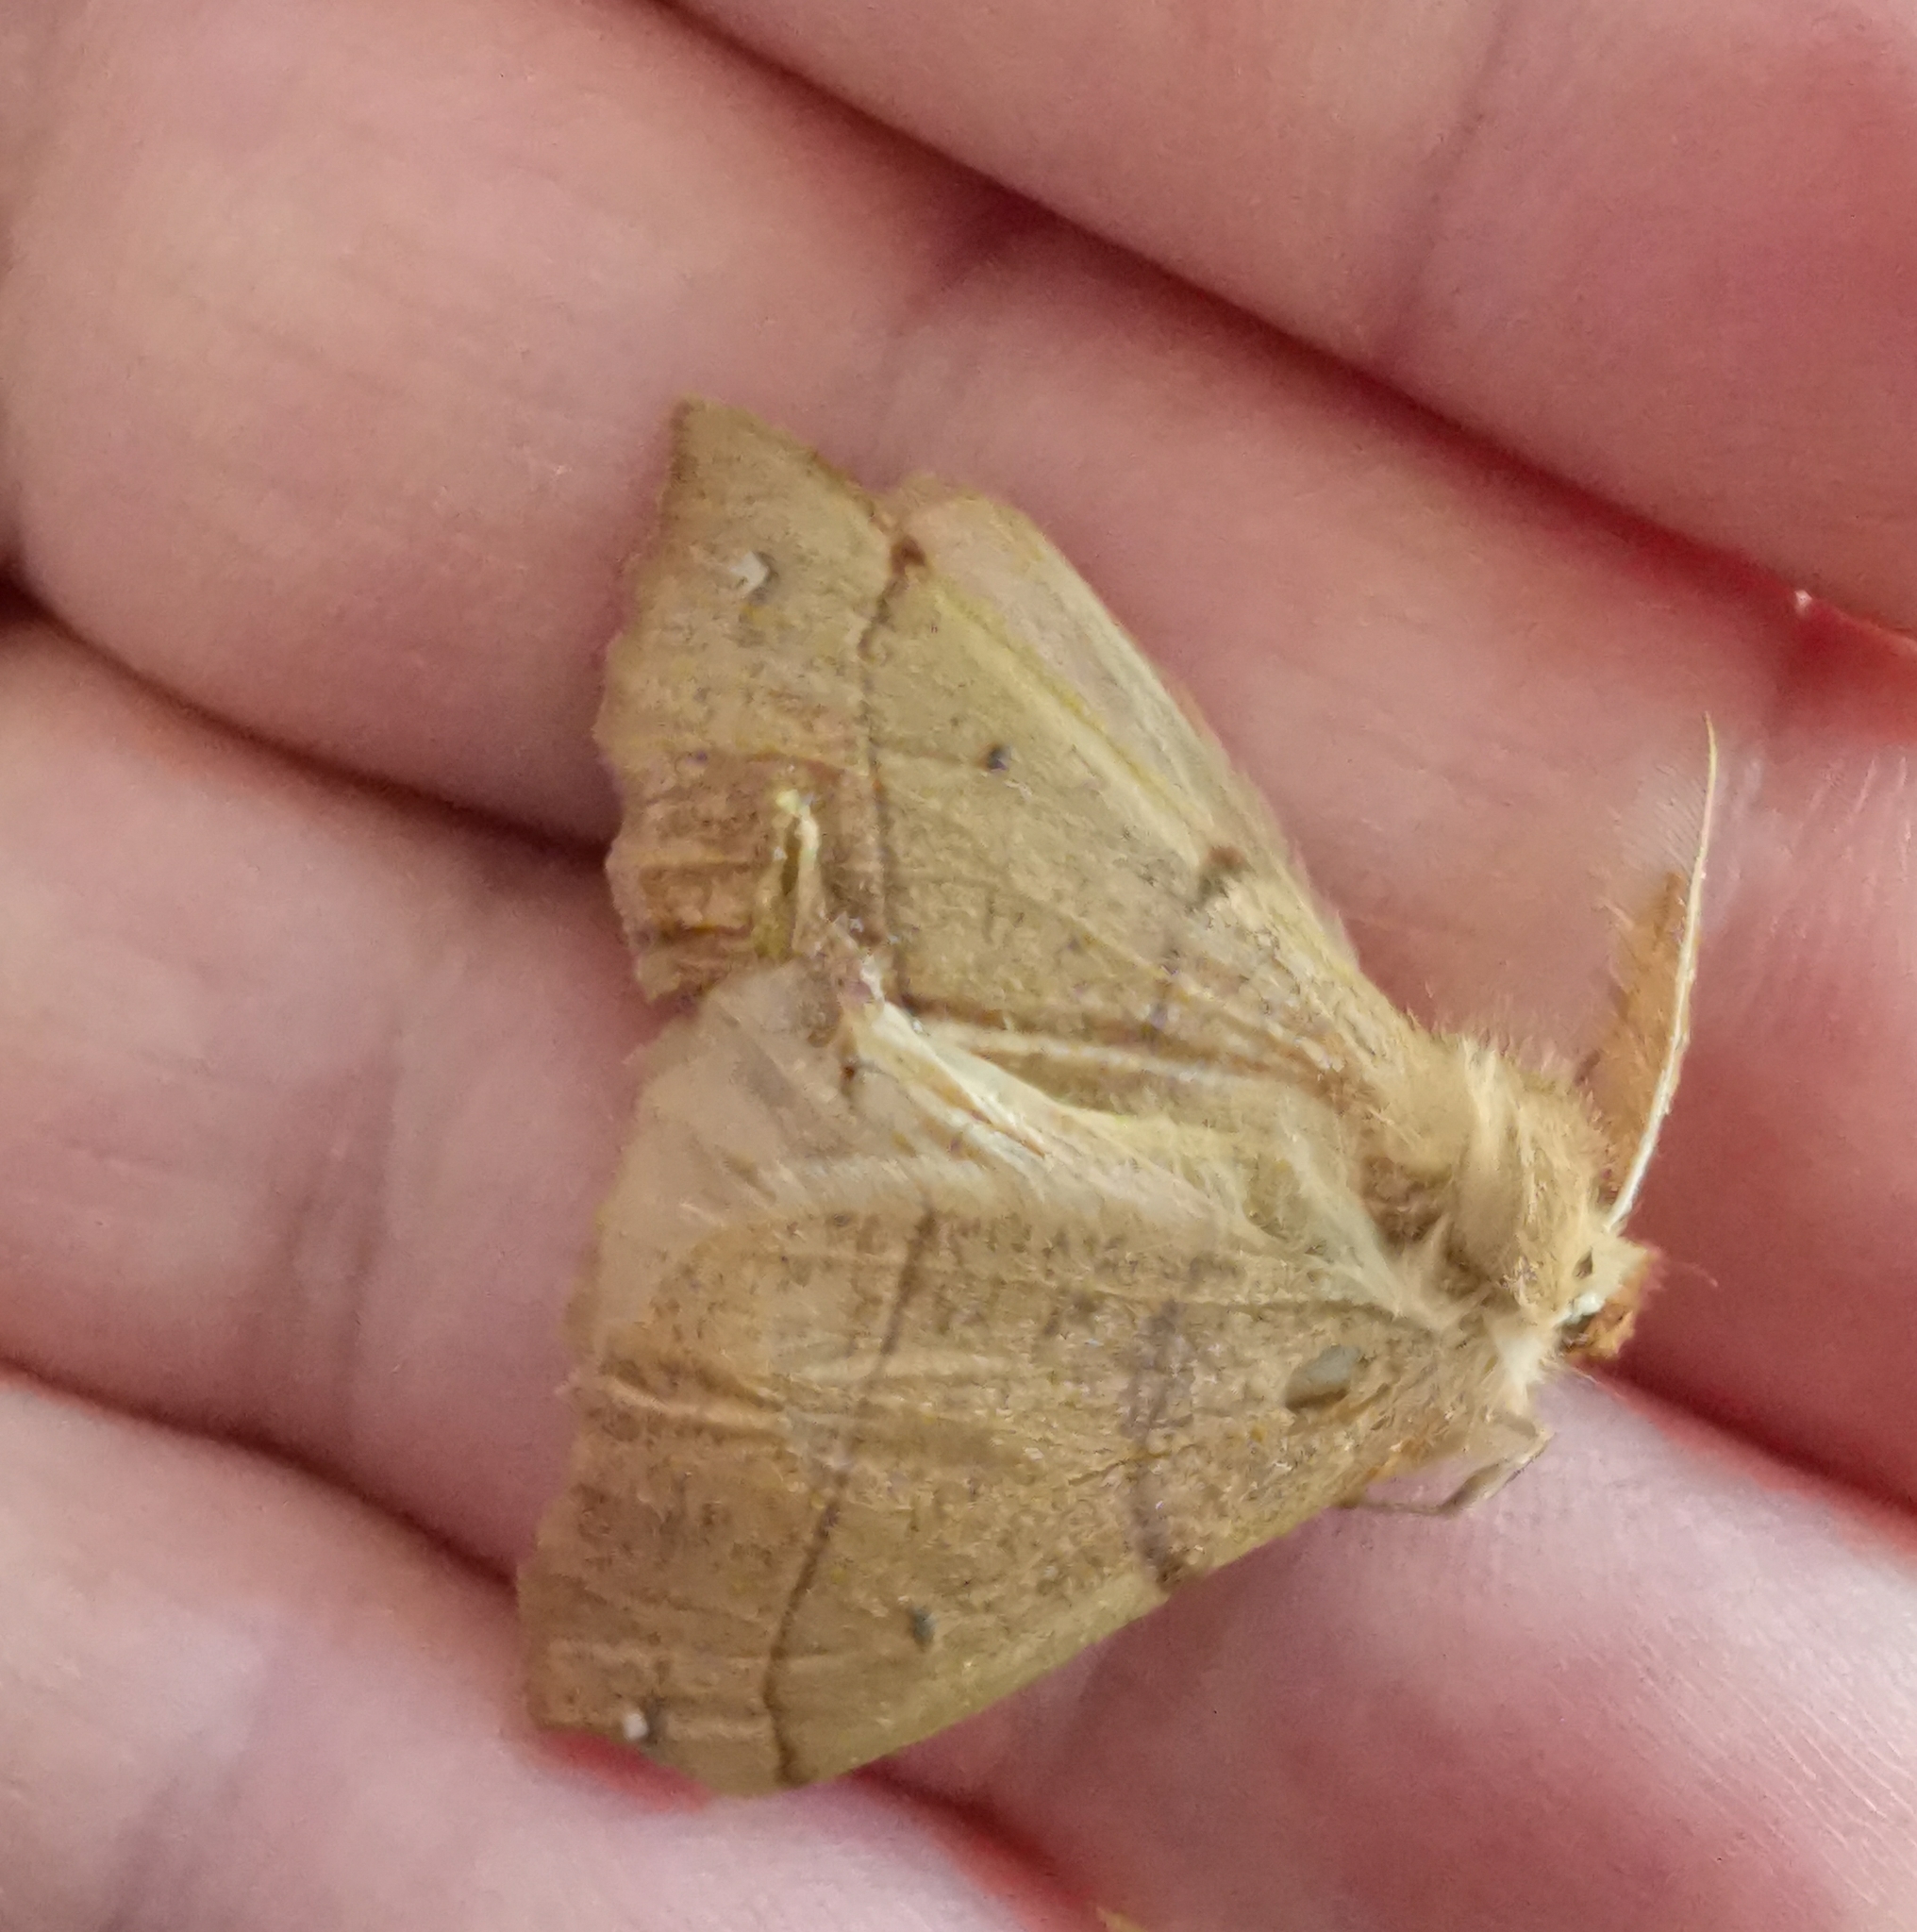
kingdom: Animalia
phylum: Arthropoda
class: Insecta
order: Lepidoptera
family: Geometridae
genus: Colotois
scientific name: Colotois pennaria
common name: Feathered thorn
